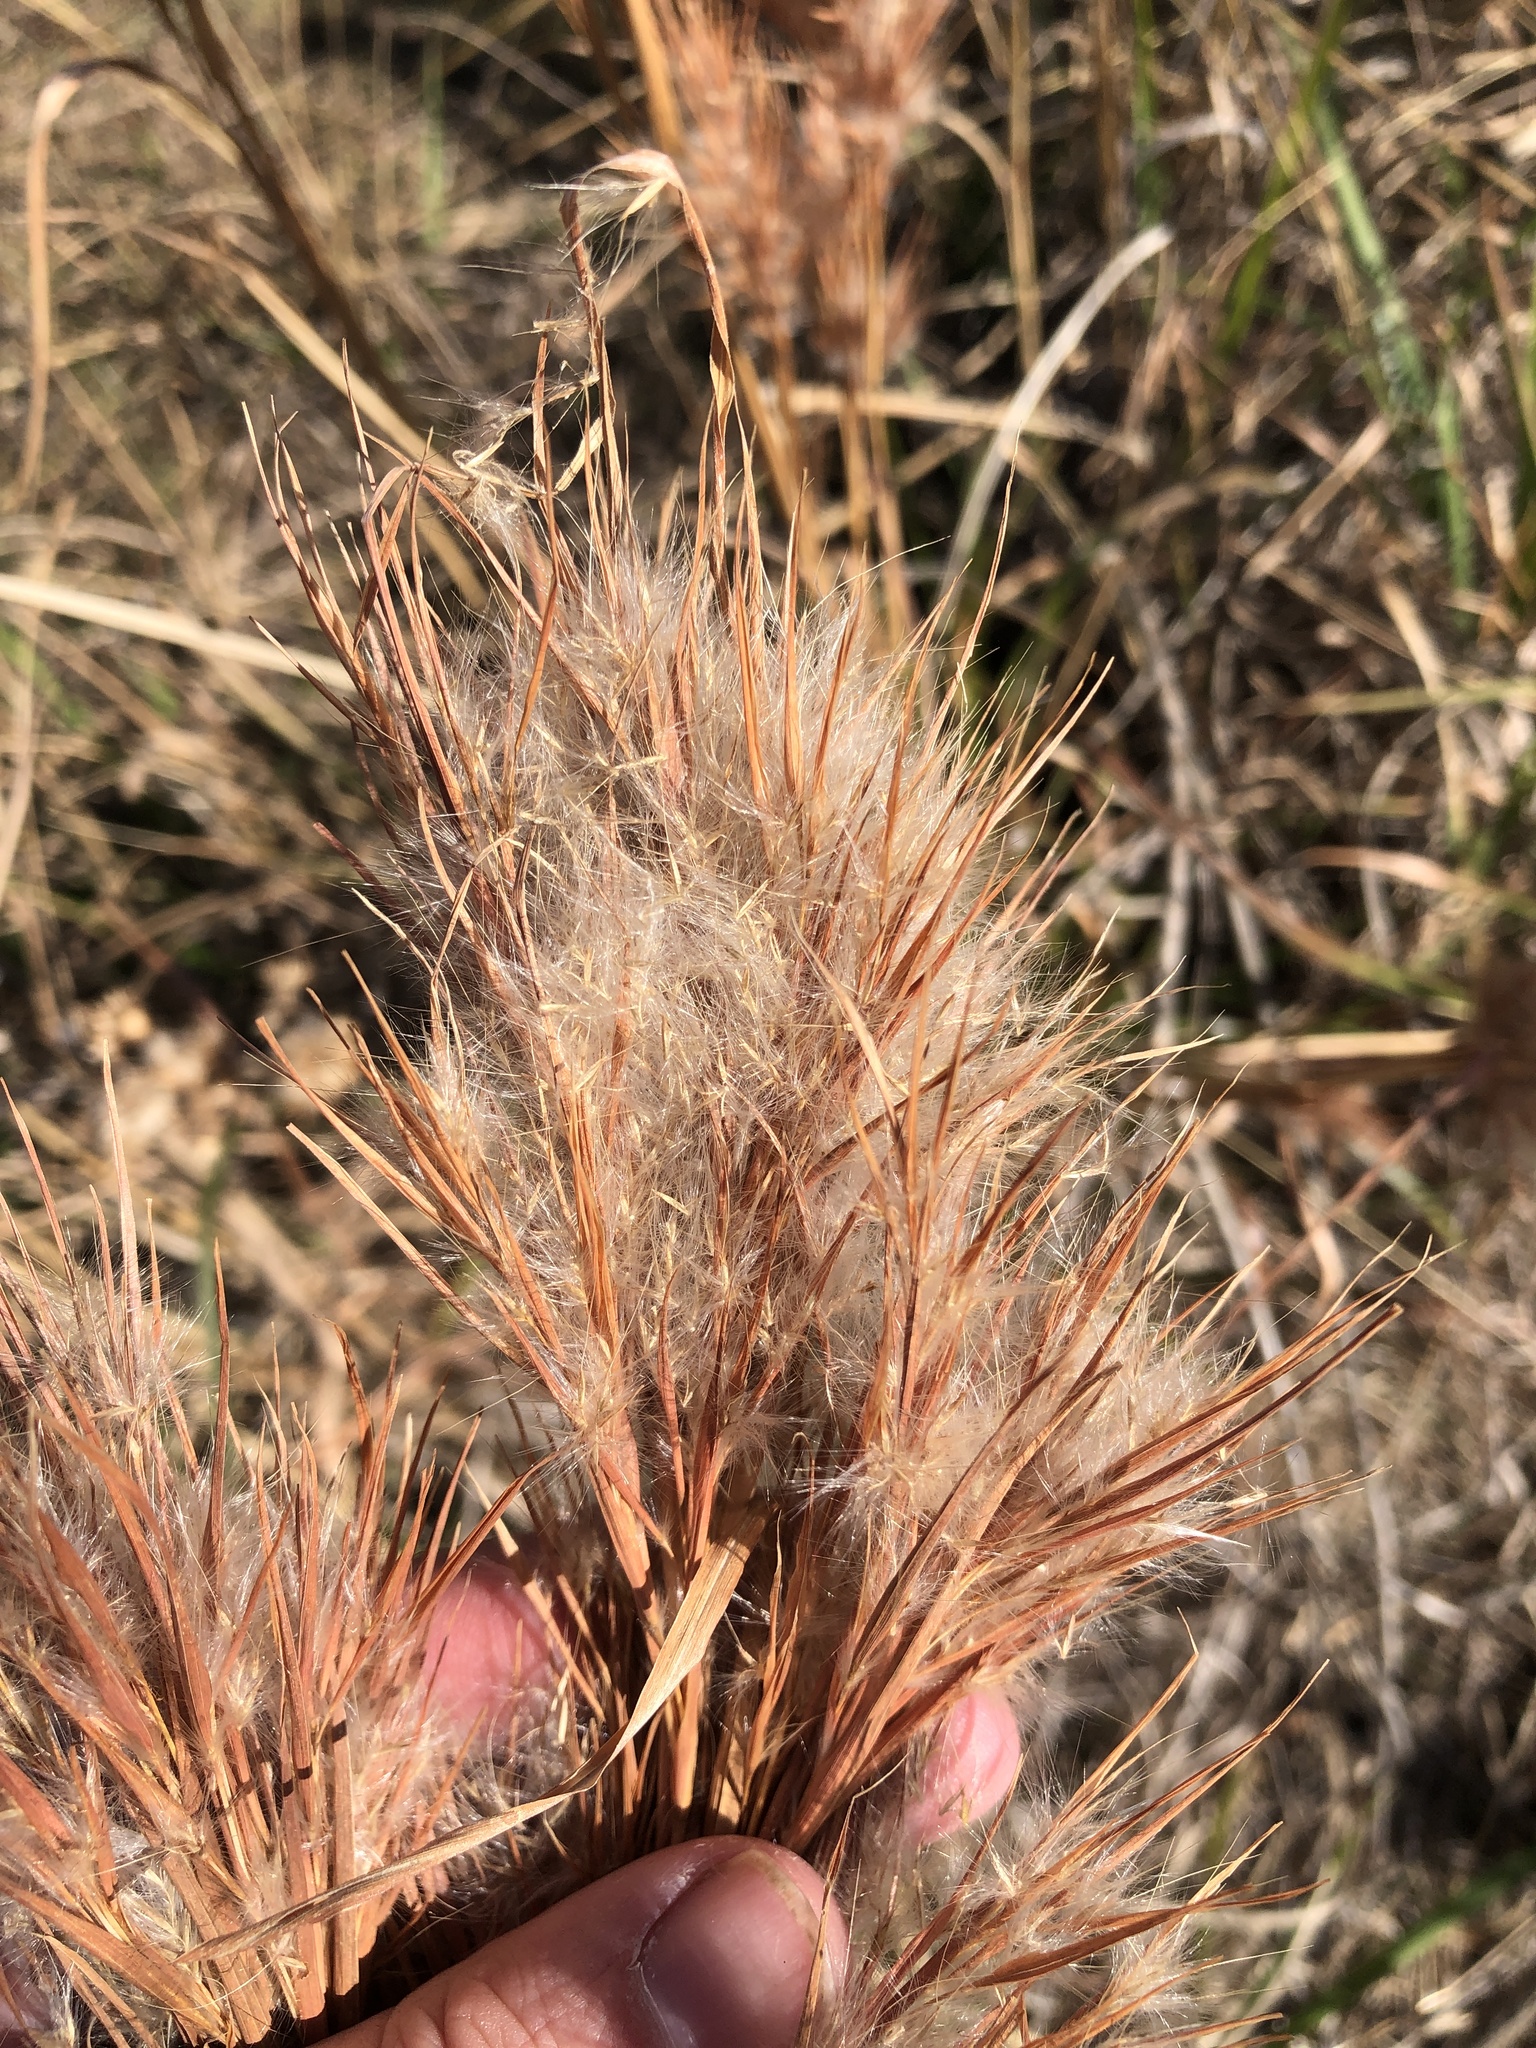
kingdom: Plantae
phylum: Tracheophyta
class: Liliopsida
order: Poales
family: Poaceae
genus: Andropogon
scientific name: Andropogon tenuispatheus
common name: Bushy bluestem
